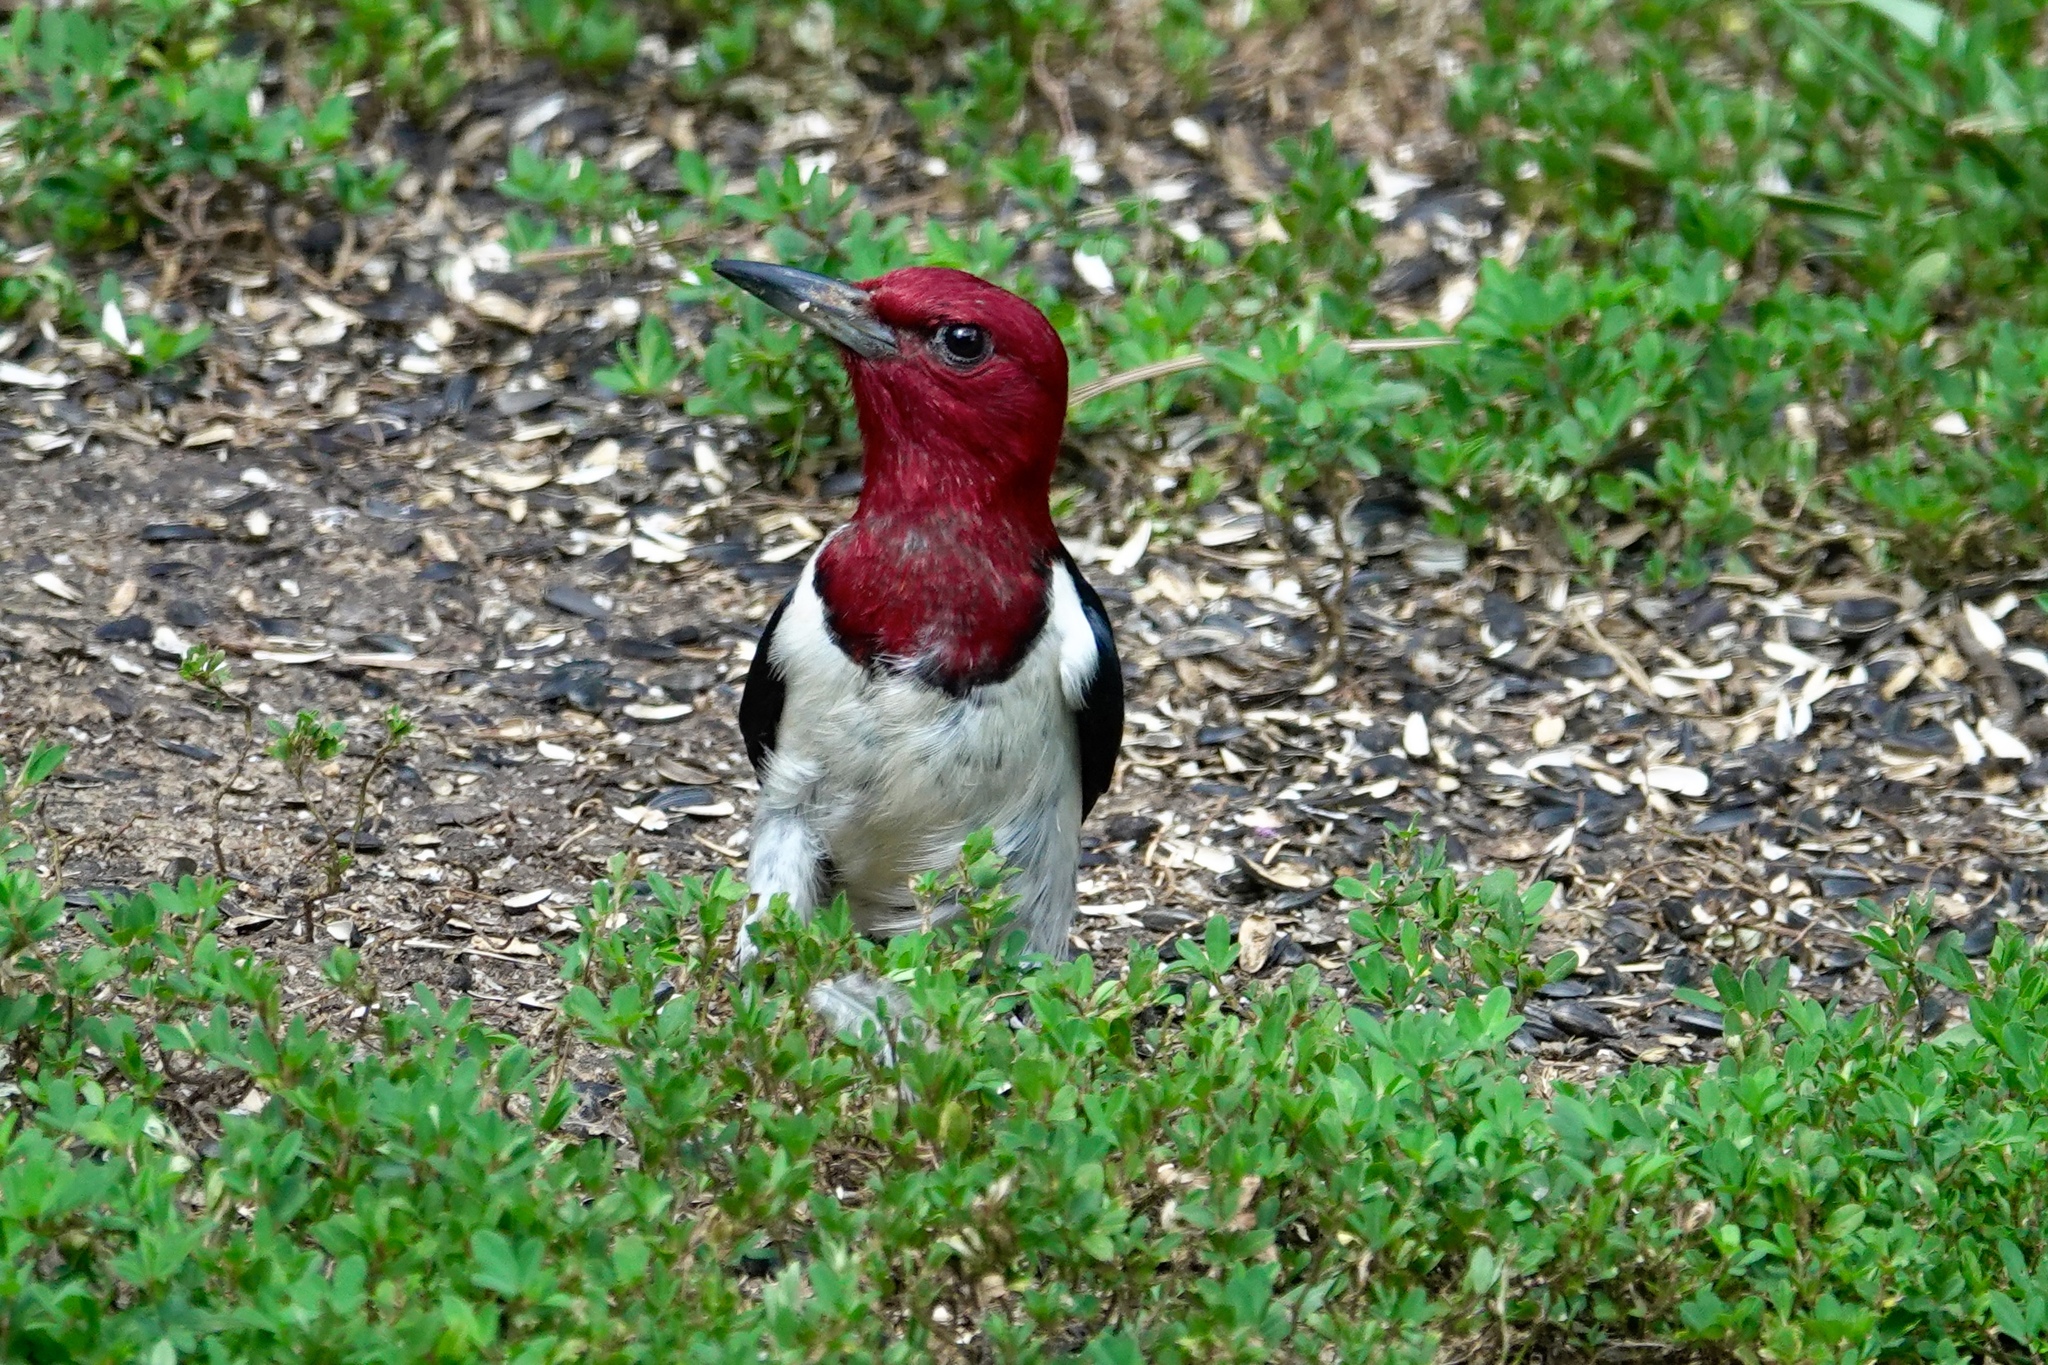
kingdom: Animalia
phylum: Chordata
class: Aves
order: Piciformes
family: Picidae
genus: Melanerpes
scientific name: Melanerpes erythrocephalus
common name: Red-headed woodpecker
